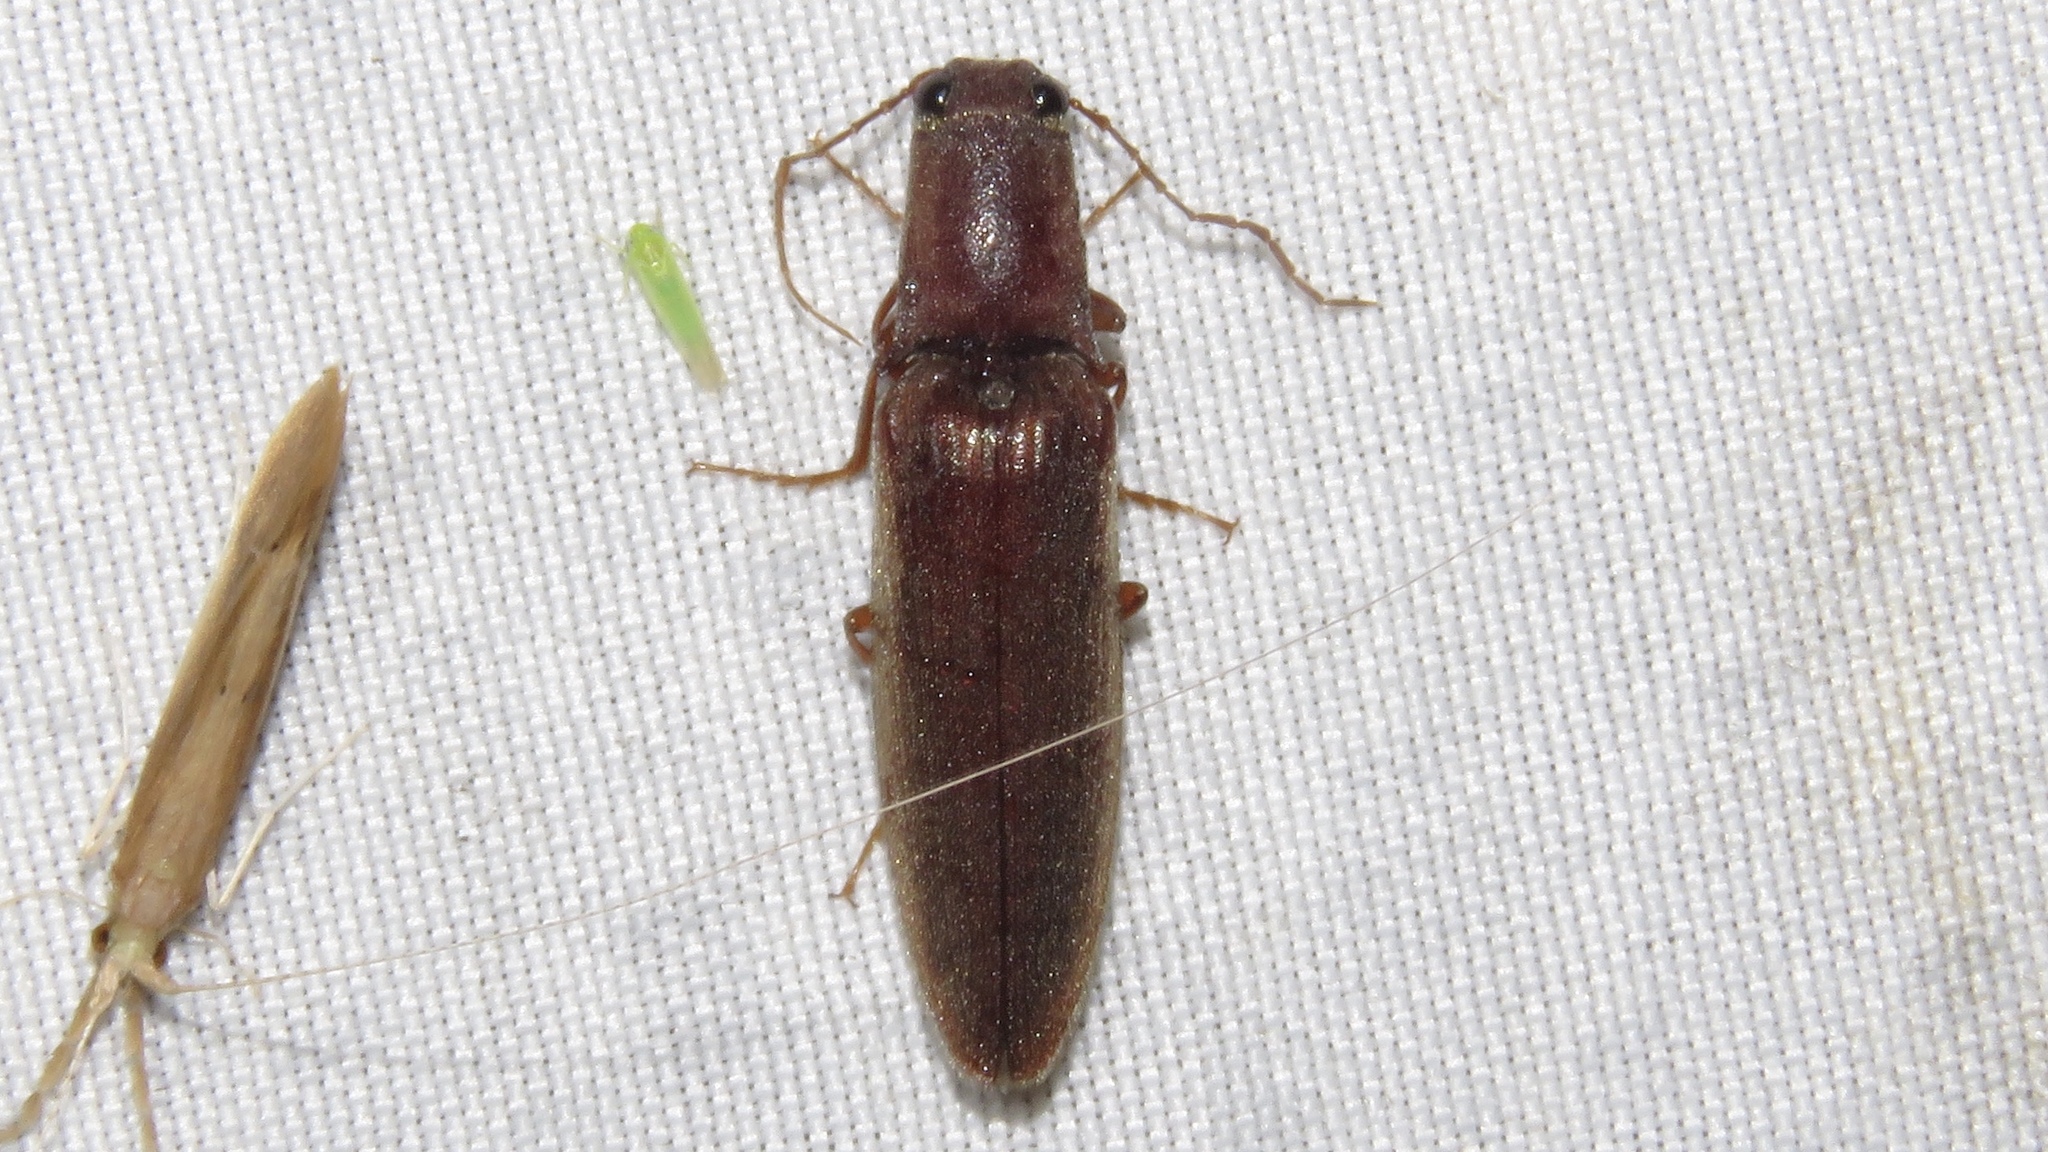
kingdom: Animalia
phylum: Arthropoda
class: Insecta
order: Coleoptera
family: Elateridae
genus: Proludius
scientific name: Proludius pyrros
